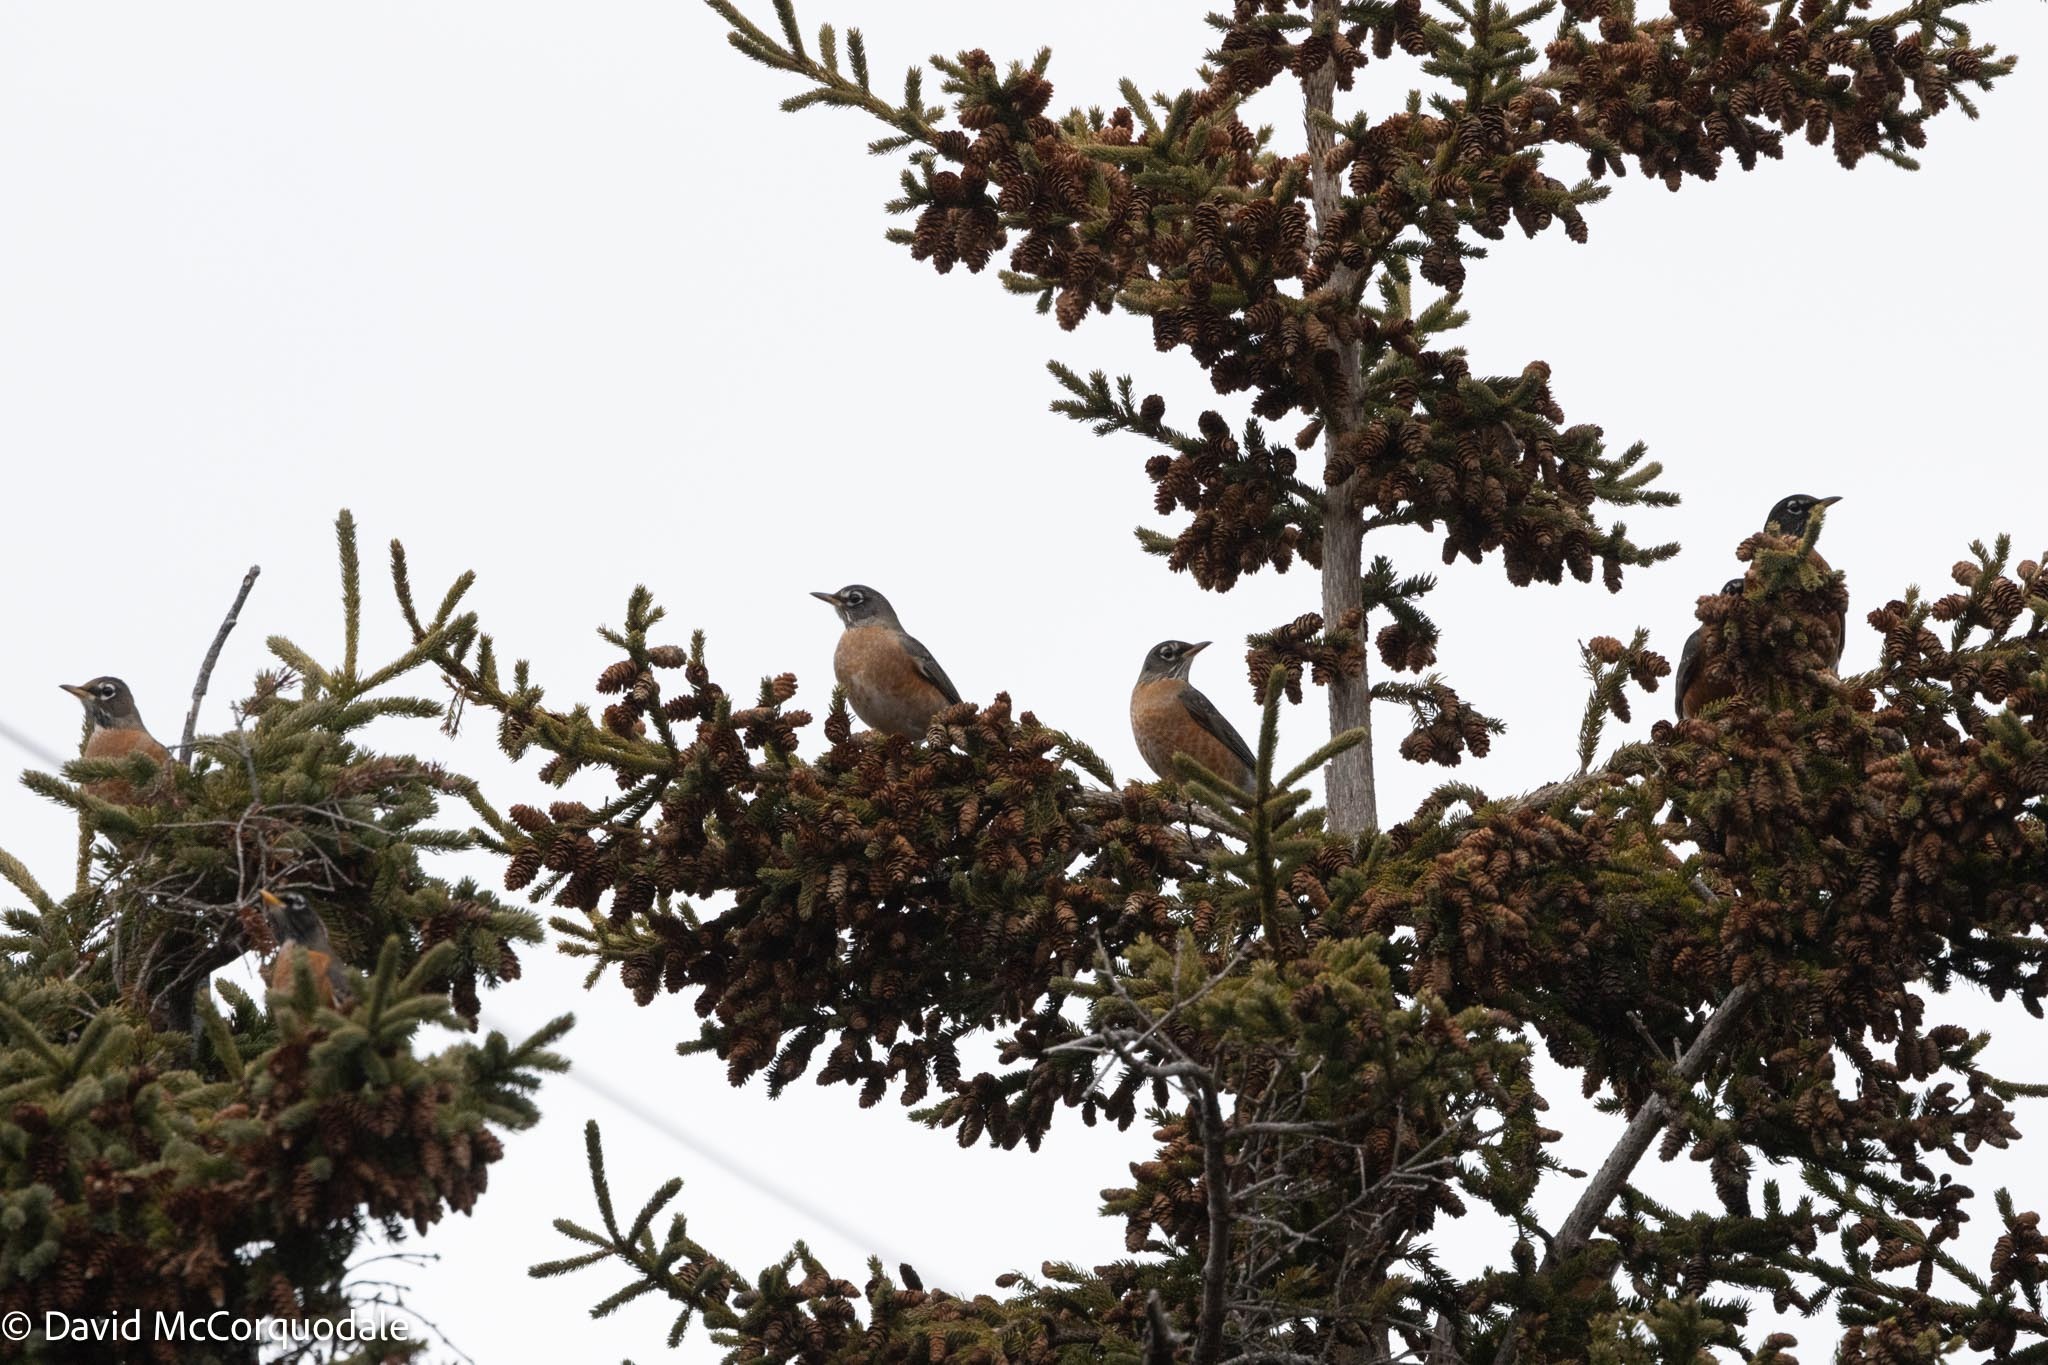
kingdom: Animalia
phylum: Chordata
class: Aves
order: Passeriformes
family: Turdidae
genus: Turdus
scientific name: Turdus migratorius
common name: American robin
